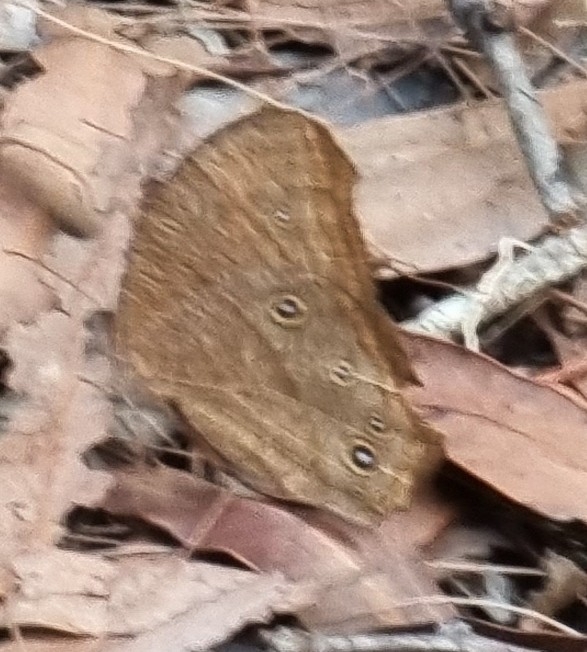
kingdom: Animalia
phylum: Arthropoda
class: Insecta
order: Lepidoptera
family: Nymphalidae
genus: Melanitis
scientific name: Melanitis leda
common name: Twilight brown
